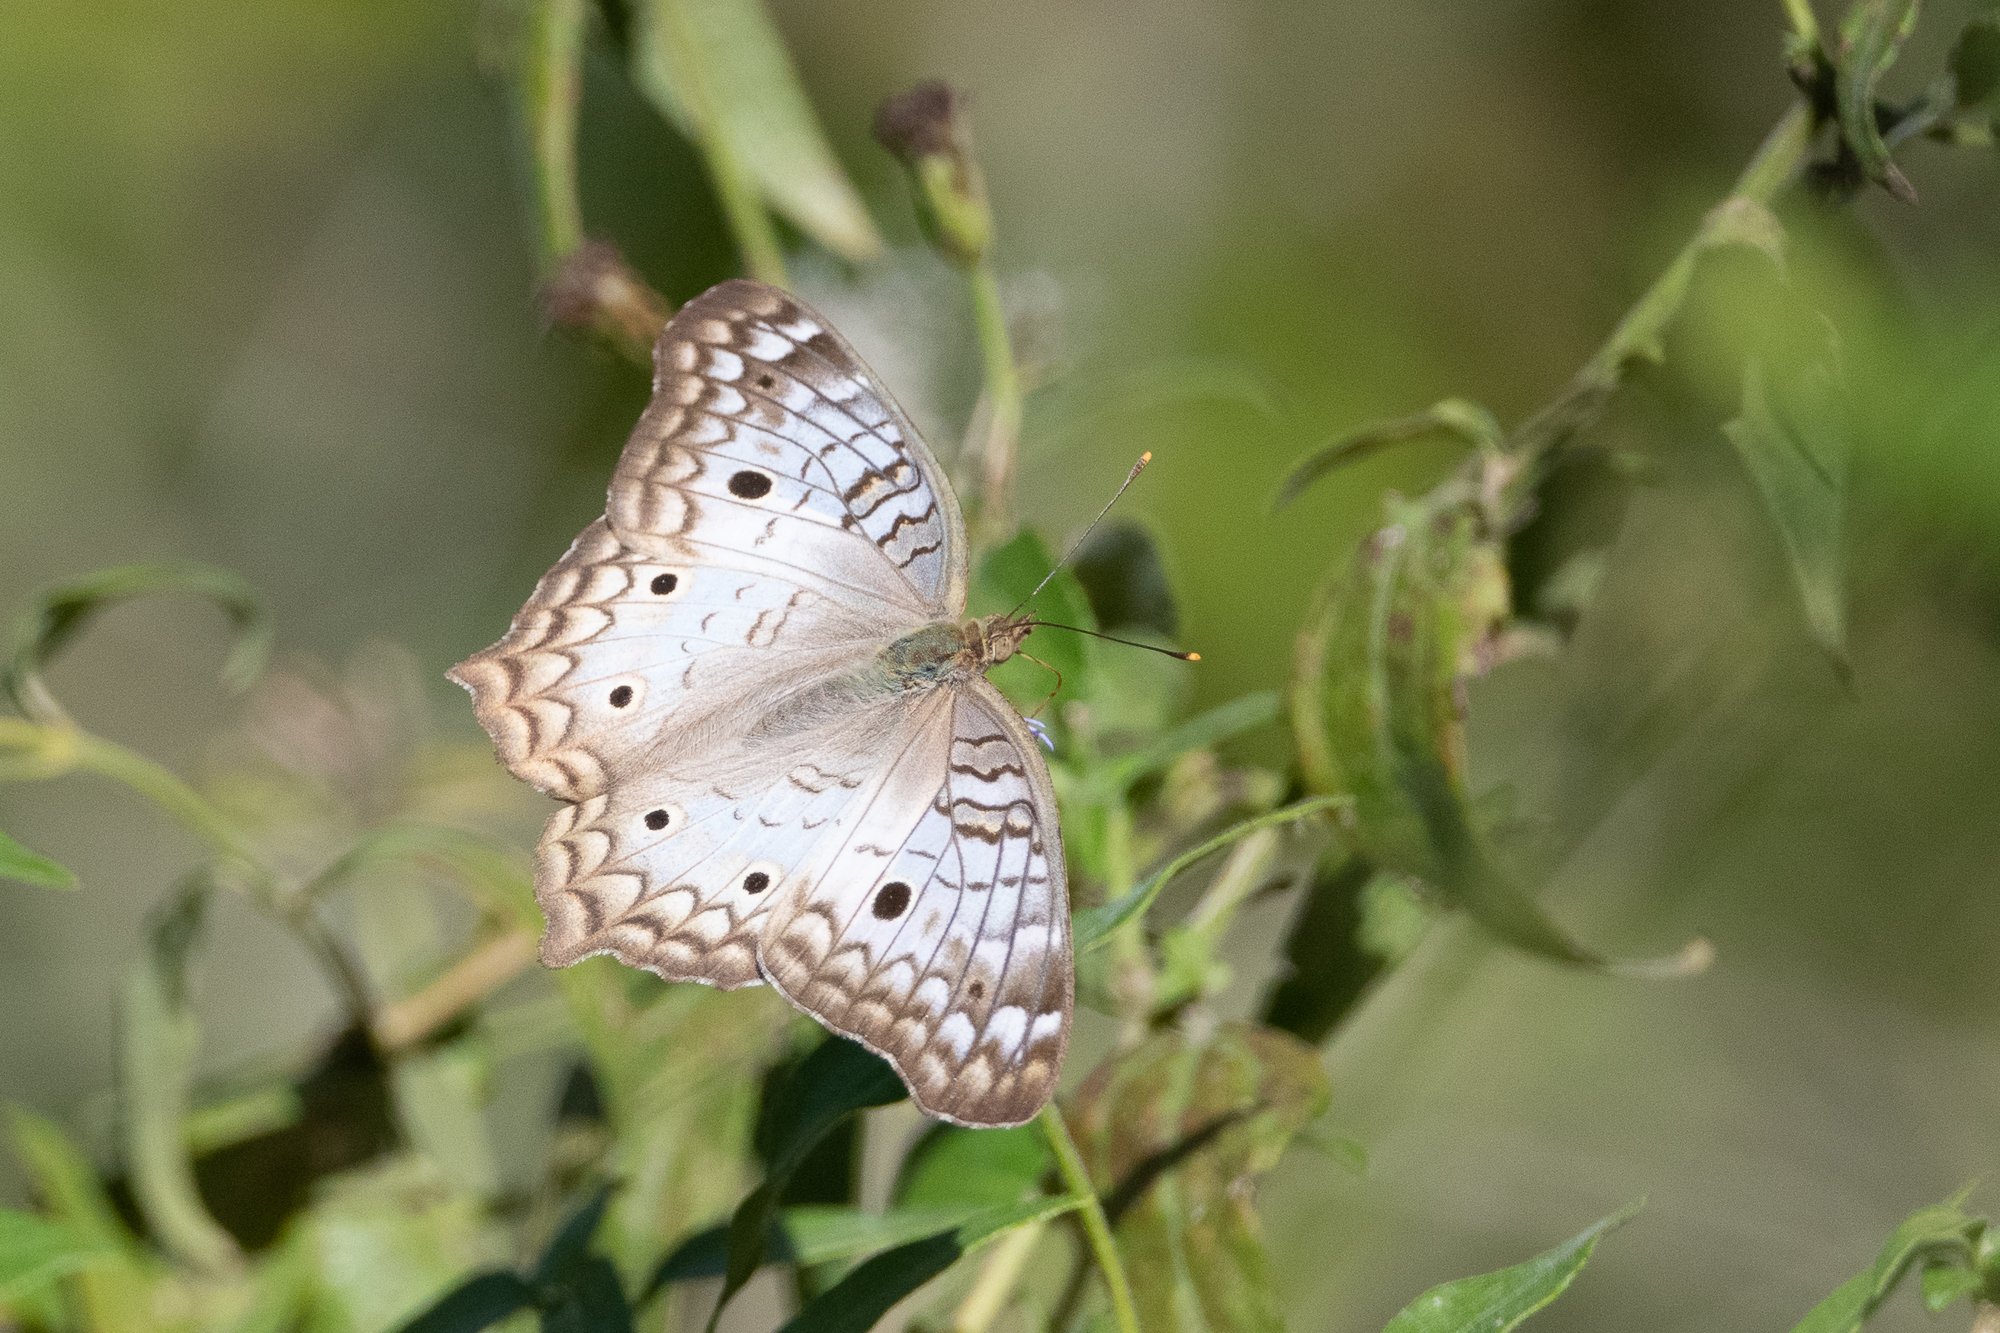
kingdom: Animalia
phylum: Arthropoda
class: Insecta
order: Lepidoptera
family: Nymphalidae
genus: Anartia
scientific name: Anartia jatrophae
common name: White peacock
